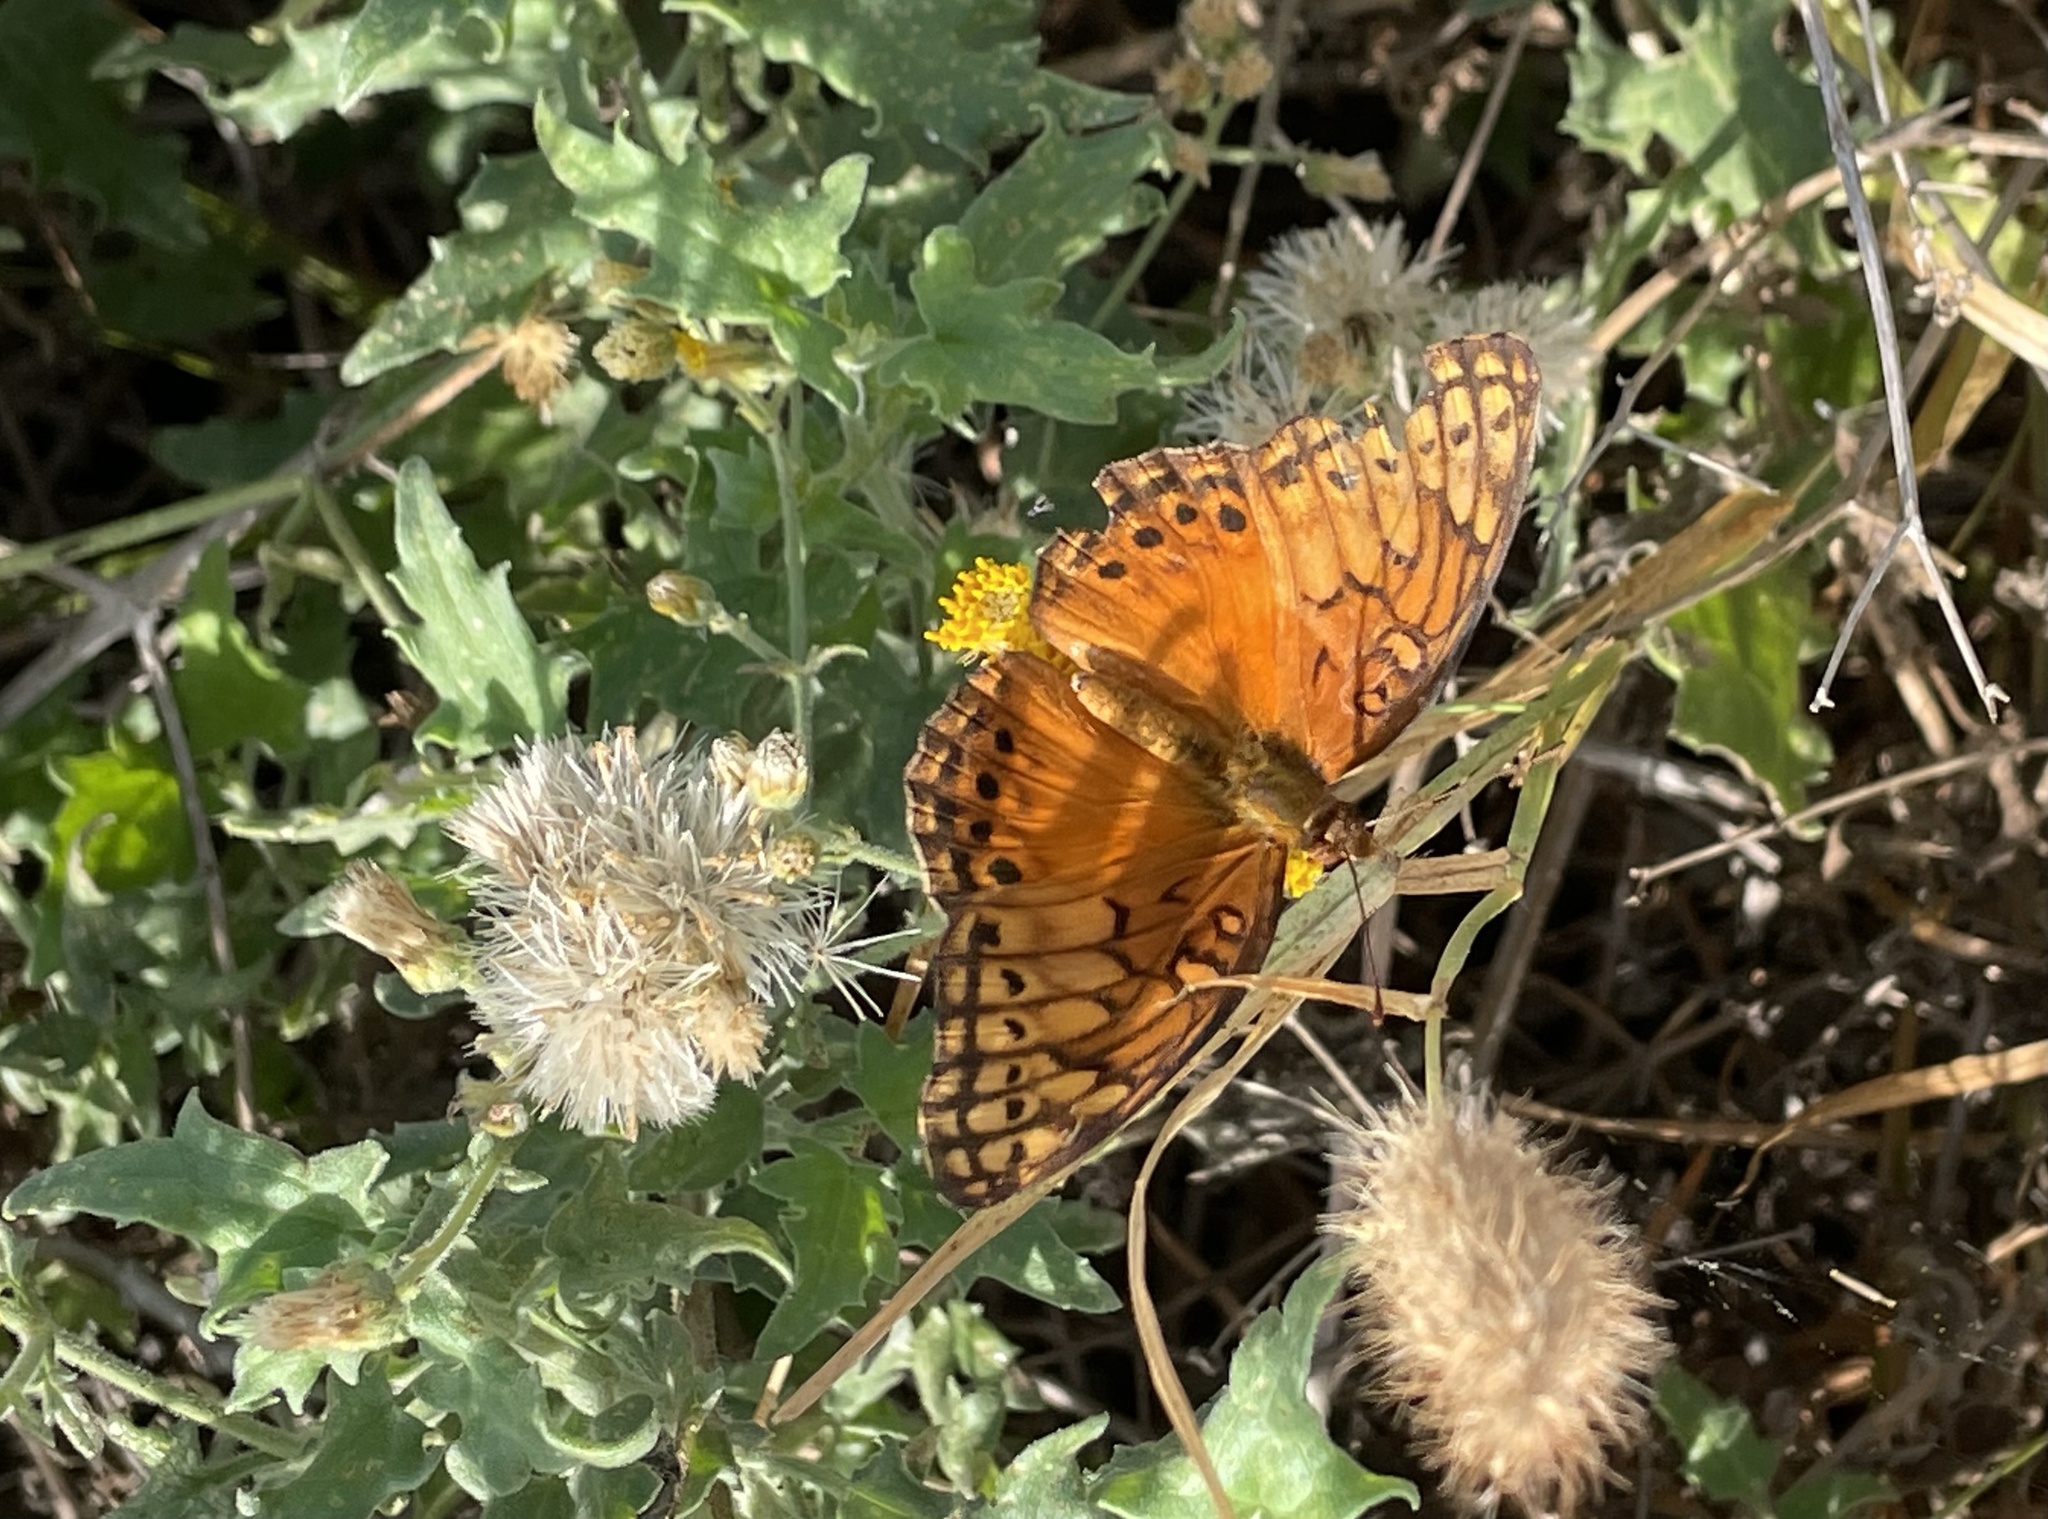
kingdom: Animalia
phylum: Arthropoda
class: Insecta
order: Lepidoptera
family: Nymphalidae
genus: Euptoieta
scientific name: Euptoieta hegesia
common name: Mexican fritillary
